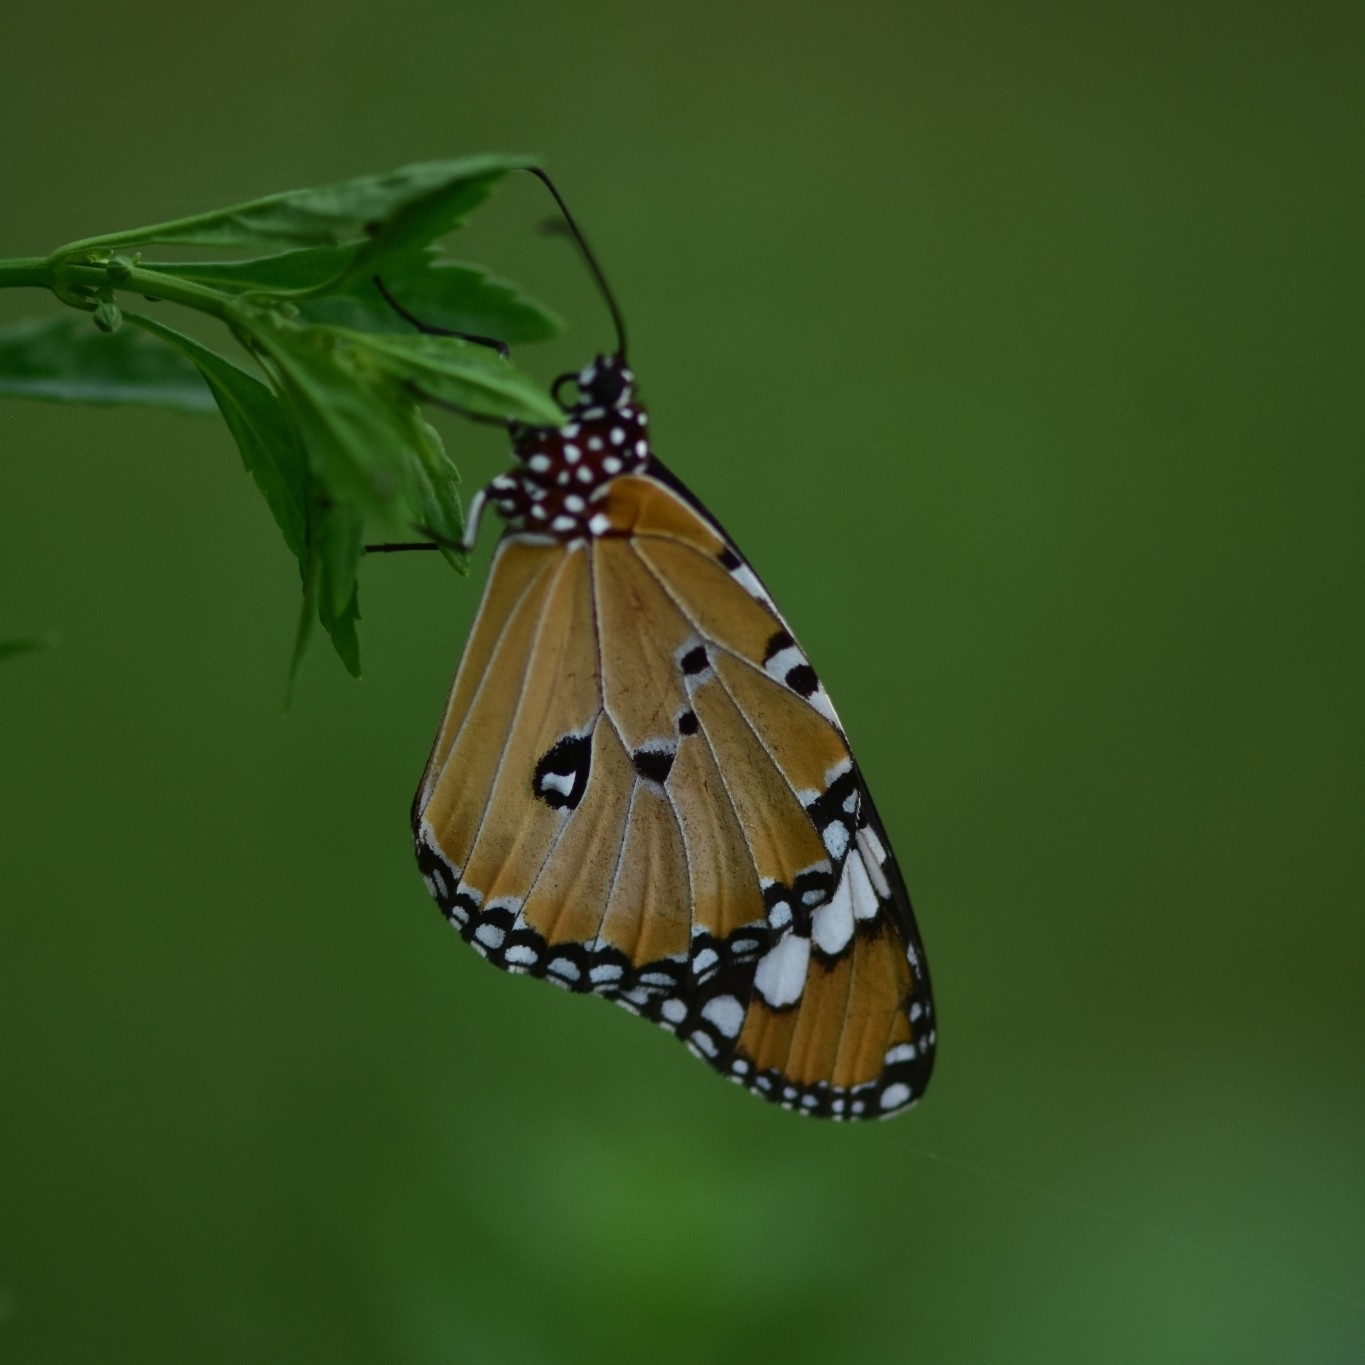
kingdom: Animalia
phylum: Arthropoda
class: Insecta
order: Lepidoptera
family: Nymphalidae
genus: Danaus
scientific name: Danaus chrysippus
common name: Plain tiger
